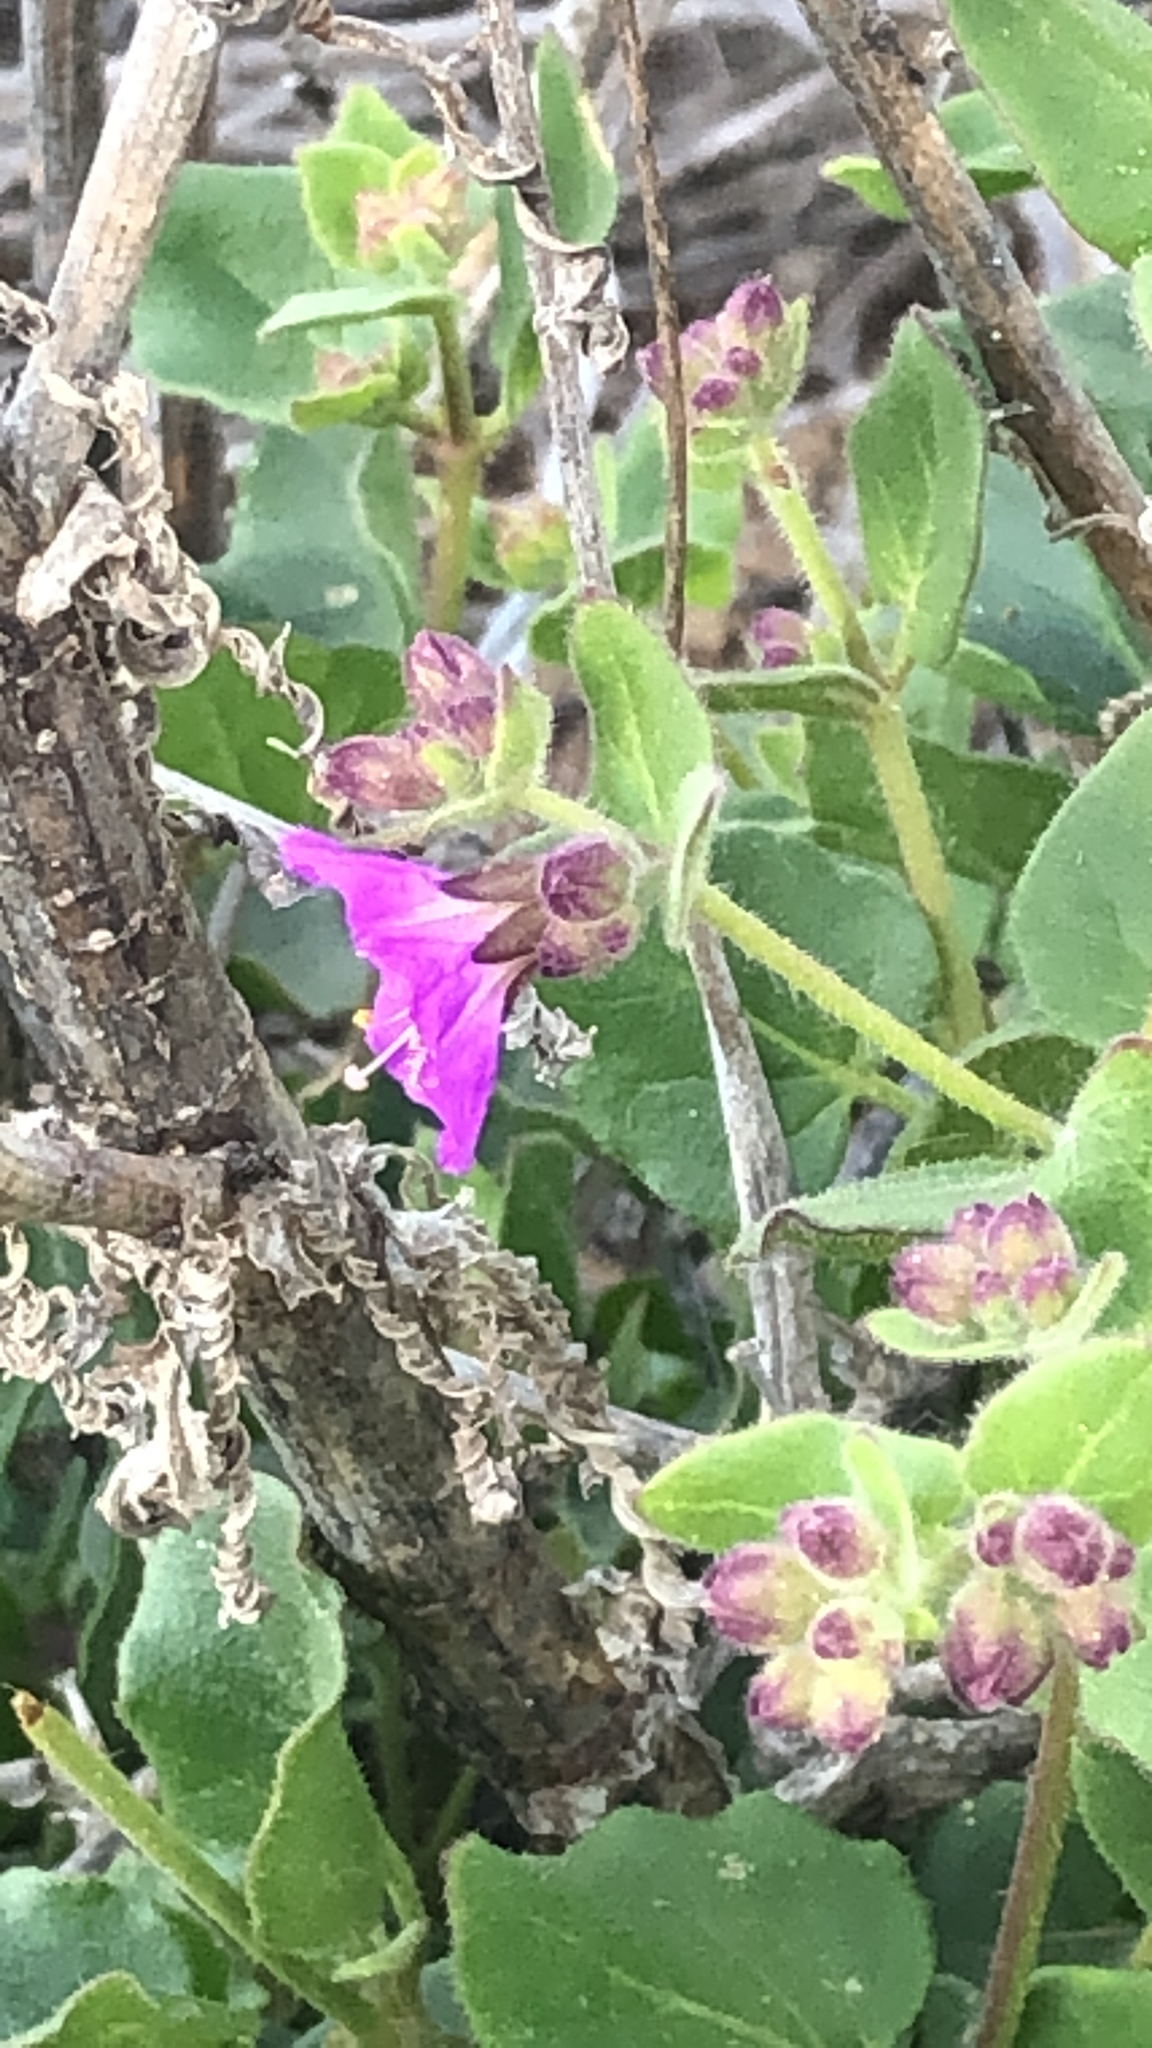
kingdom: Plantae
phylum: Tracheophyta
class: Magnoliopsida
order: Caryophyllales
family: Nyctaginaceae
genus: Mirabilis
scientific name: Mirabilis laevis
